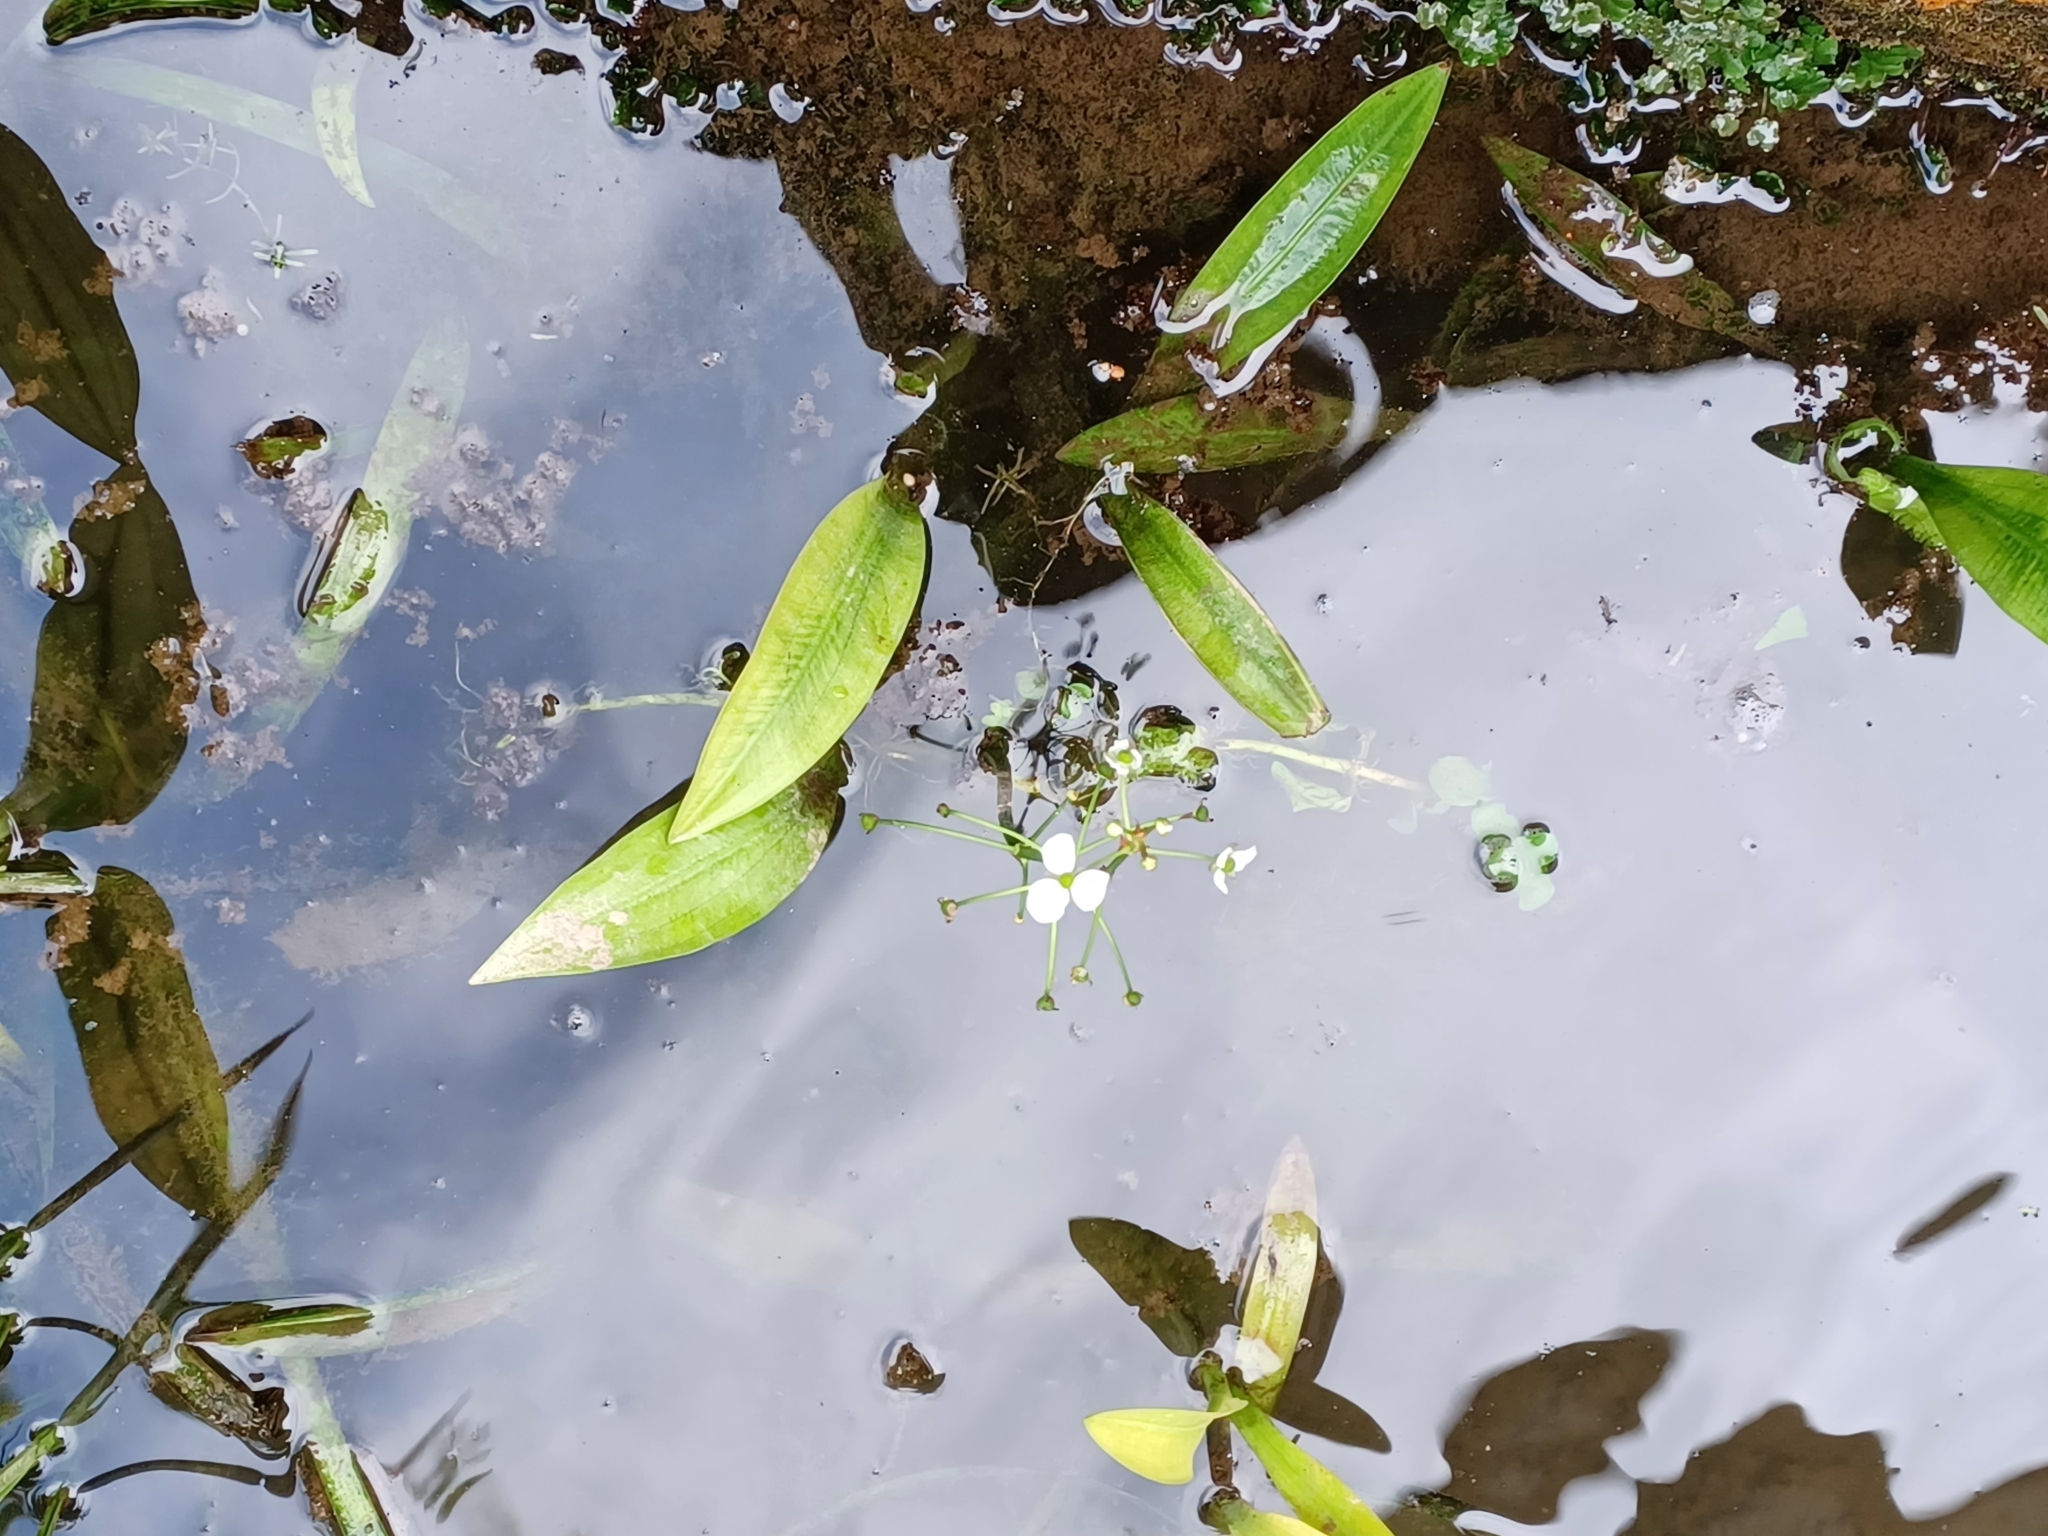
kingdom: Plantae
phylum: Tracheophyta
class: Liliopsida
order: Alismatales
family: Alismataceae
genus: Alisma
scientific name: Alisma plantago-aquatica
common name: Water-plantain
